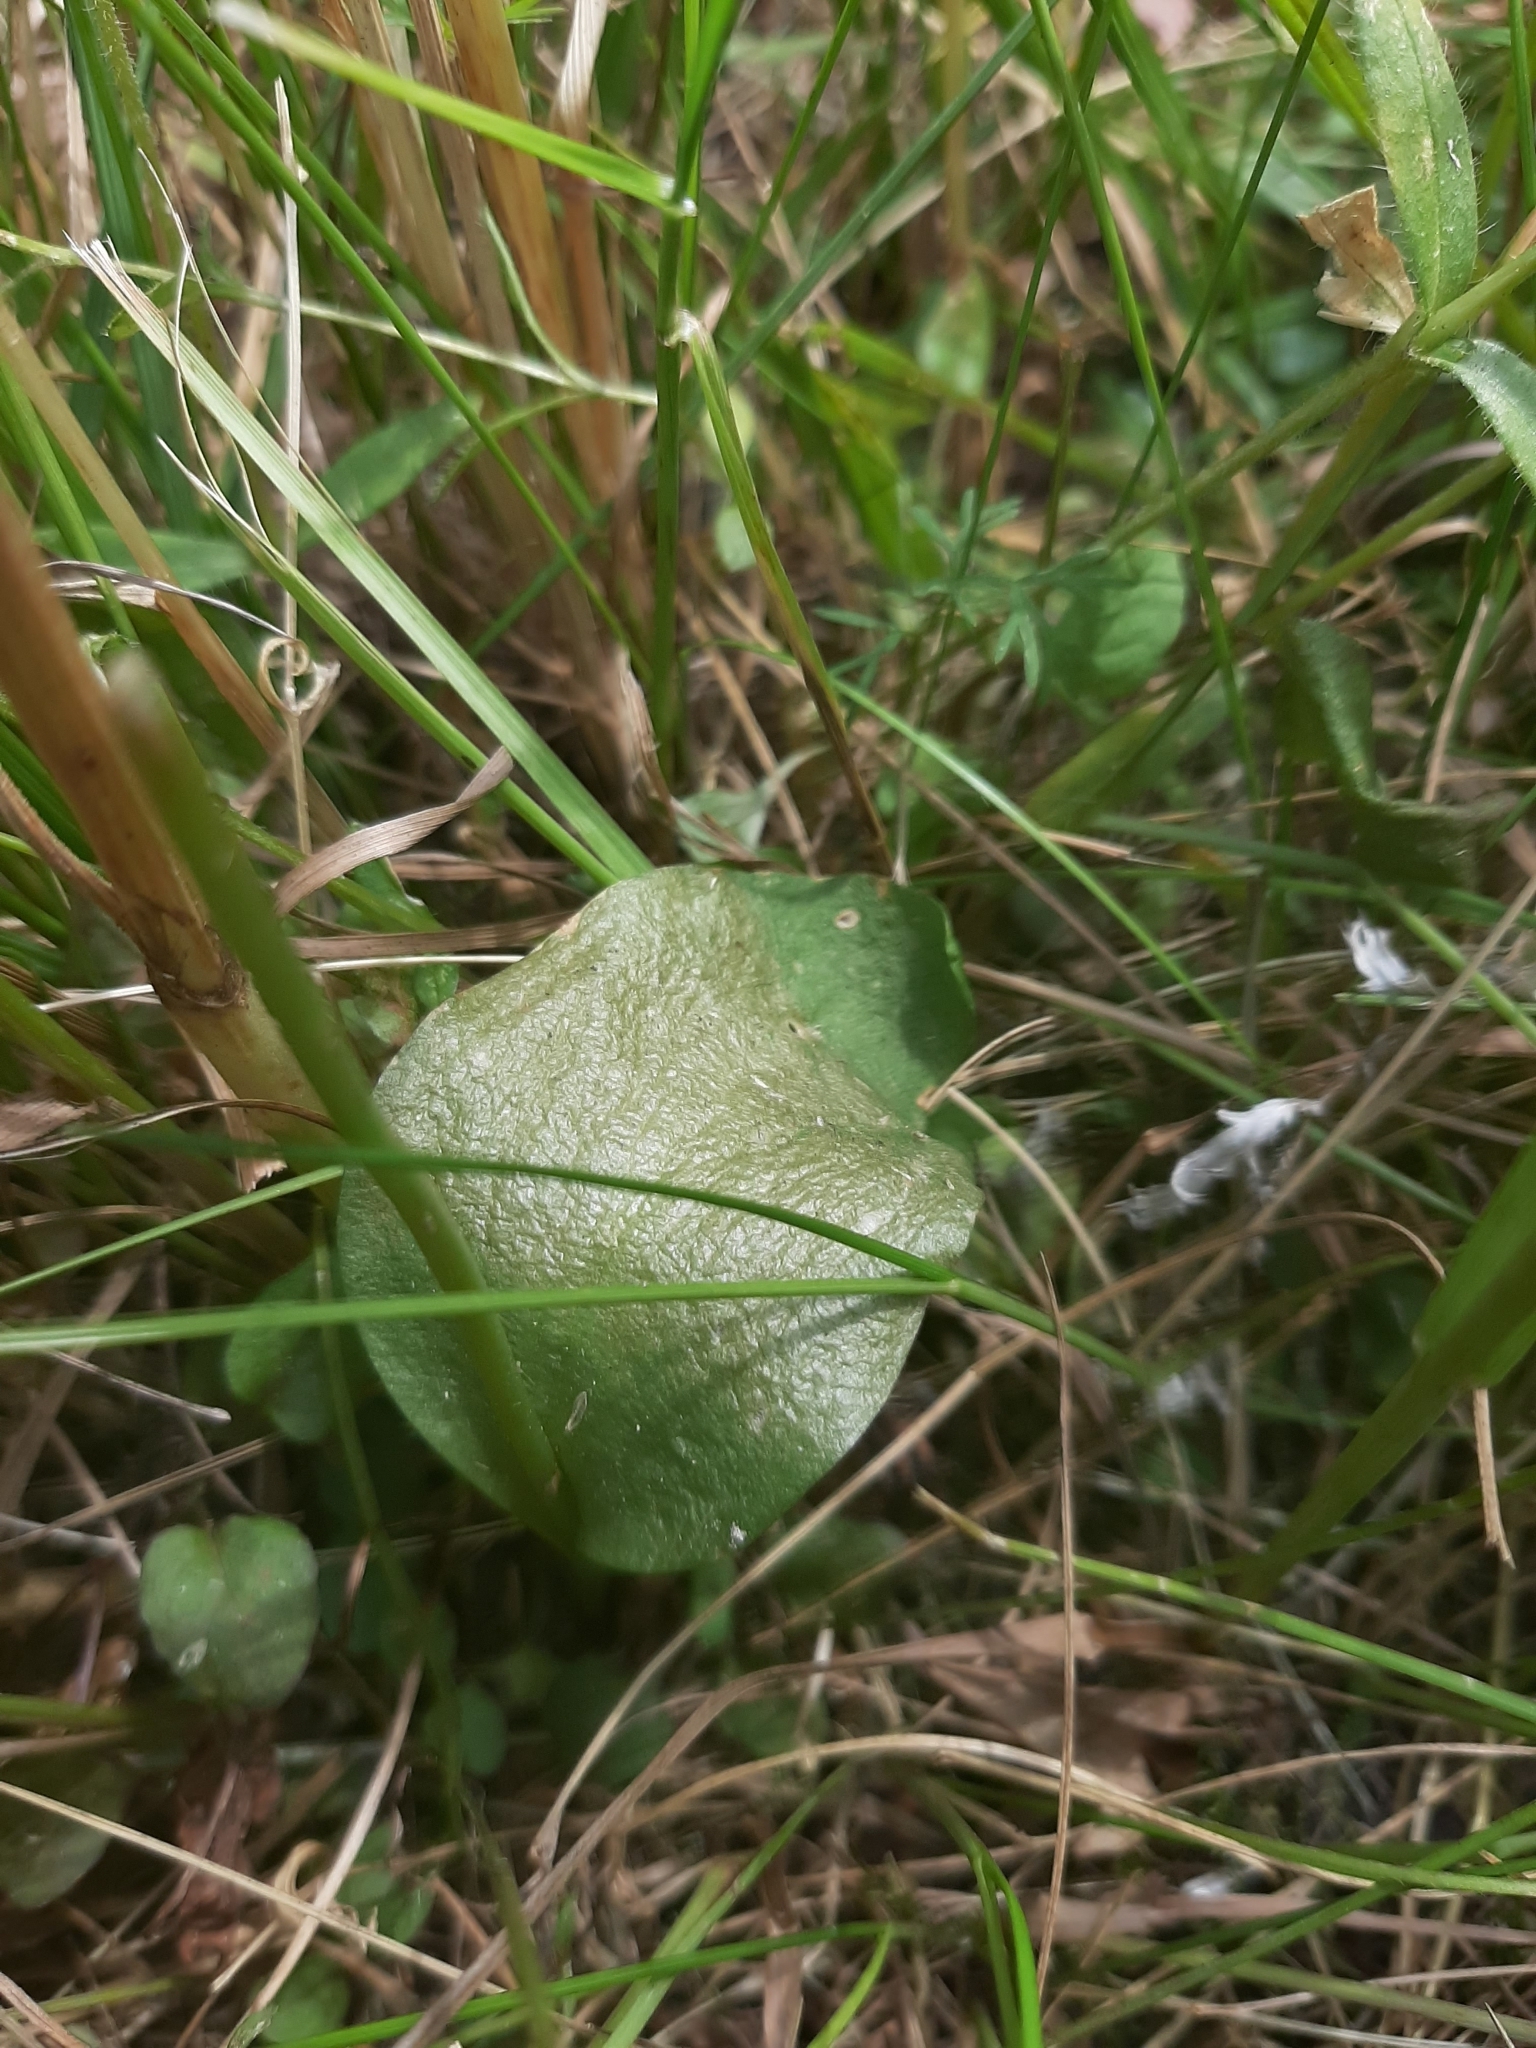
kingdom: Plantae
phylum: Tracheophyta
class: Polypodiopsida
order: Ophioglossales
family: Ophioglossaceae
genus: Ophioglossum
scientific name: Ophioglossum vulgatum
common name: Adder's-tongue
